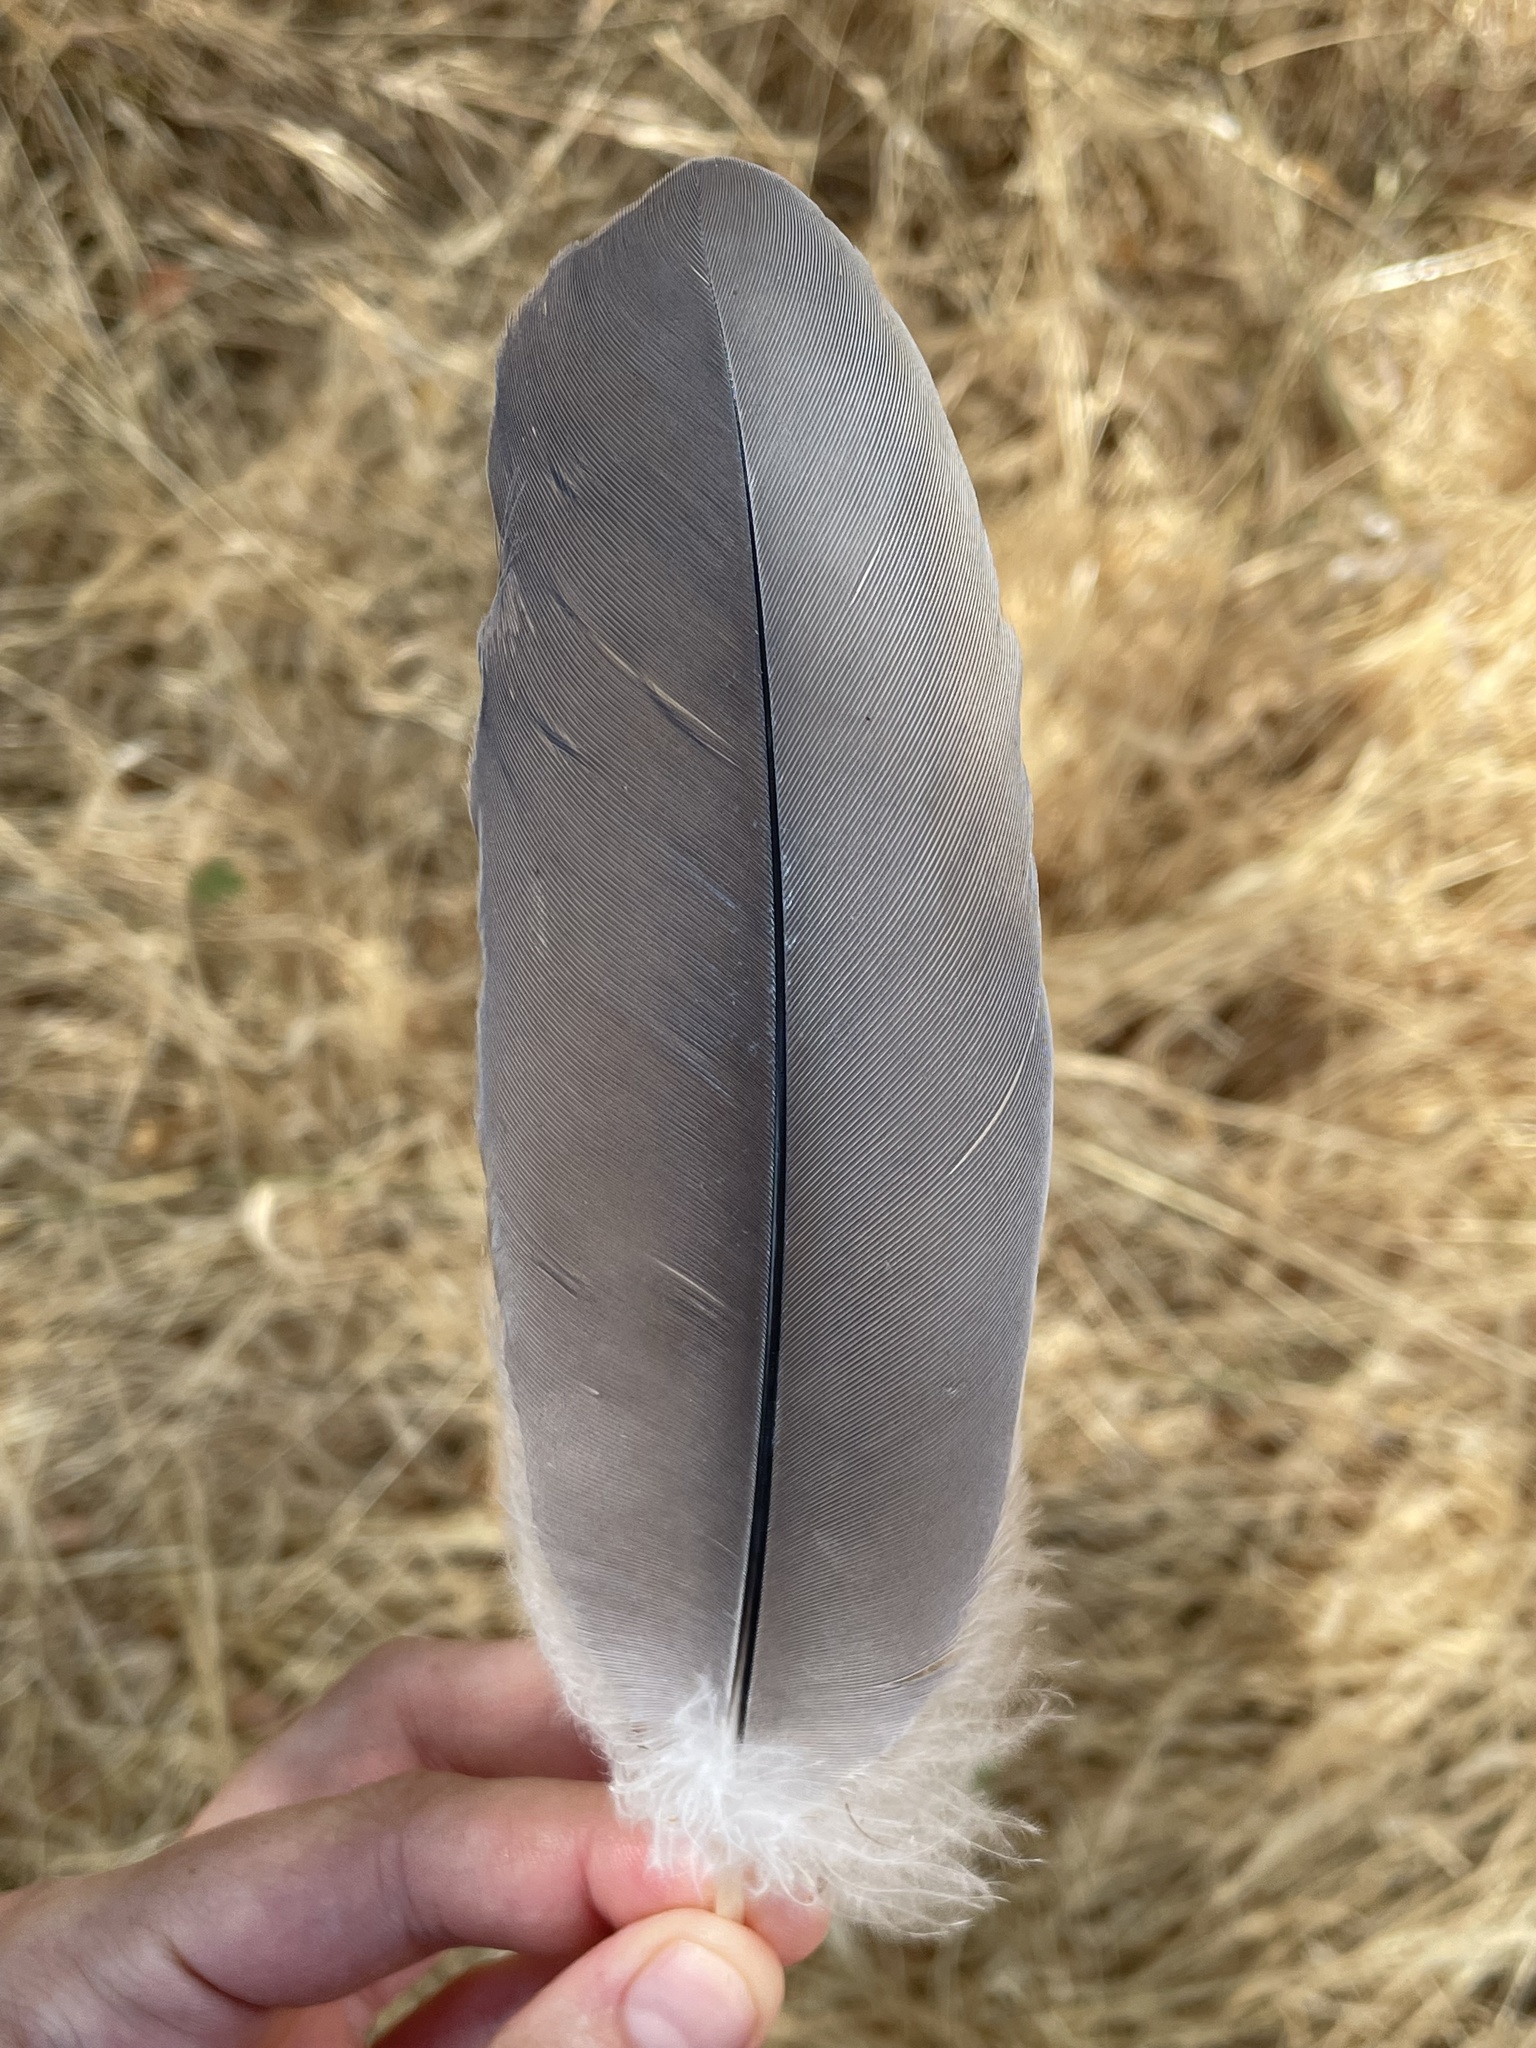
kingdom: Animalia
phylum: Chordata
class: Aves
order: Pelecaniformes
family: Ardeidae
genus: Ardea
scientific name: Ardea herodias
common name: Great blue heron
